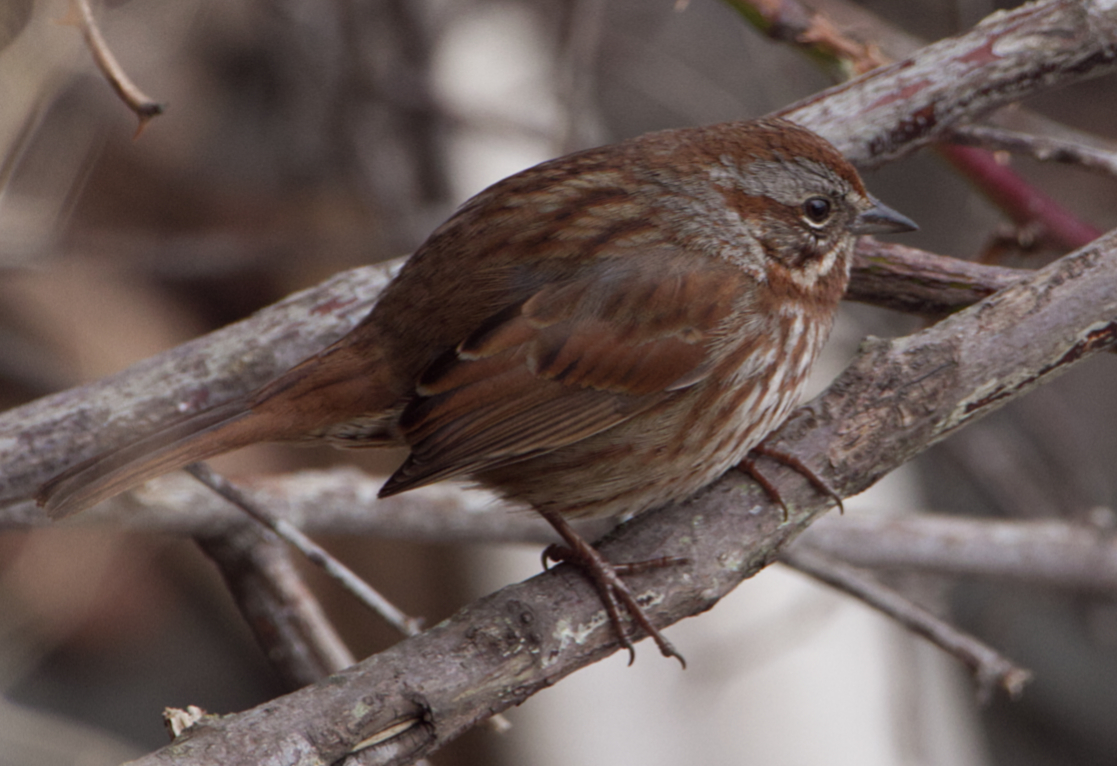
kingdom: Animalia
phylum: Chordata
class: Aves
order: Passeriformes
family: Passerellidae
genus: Melospiza
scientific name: Melospiza melodia
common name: Song sparrow
